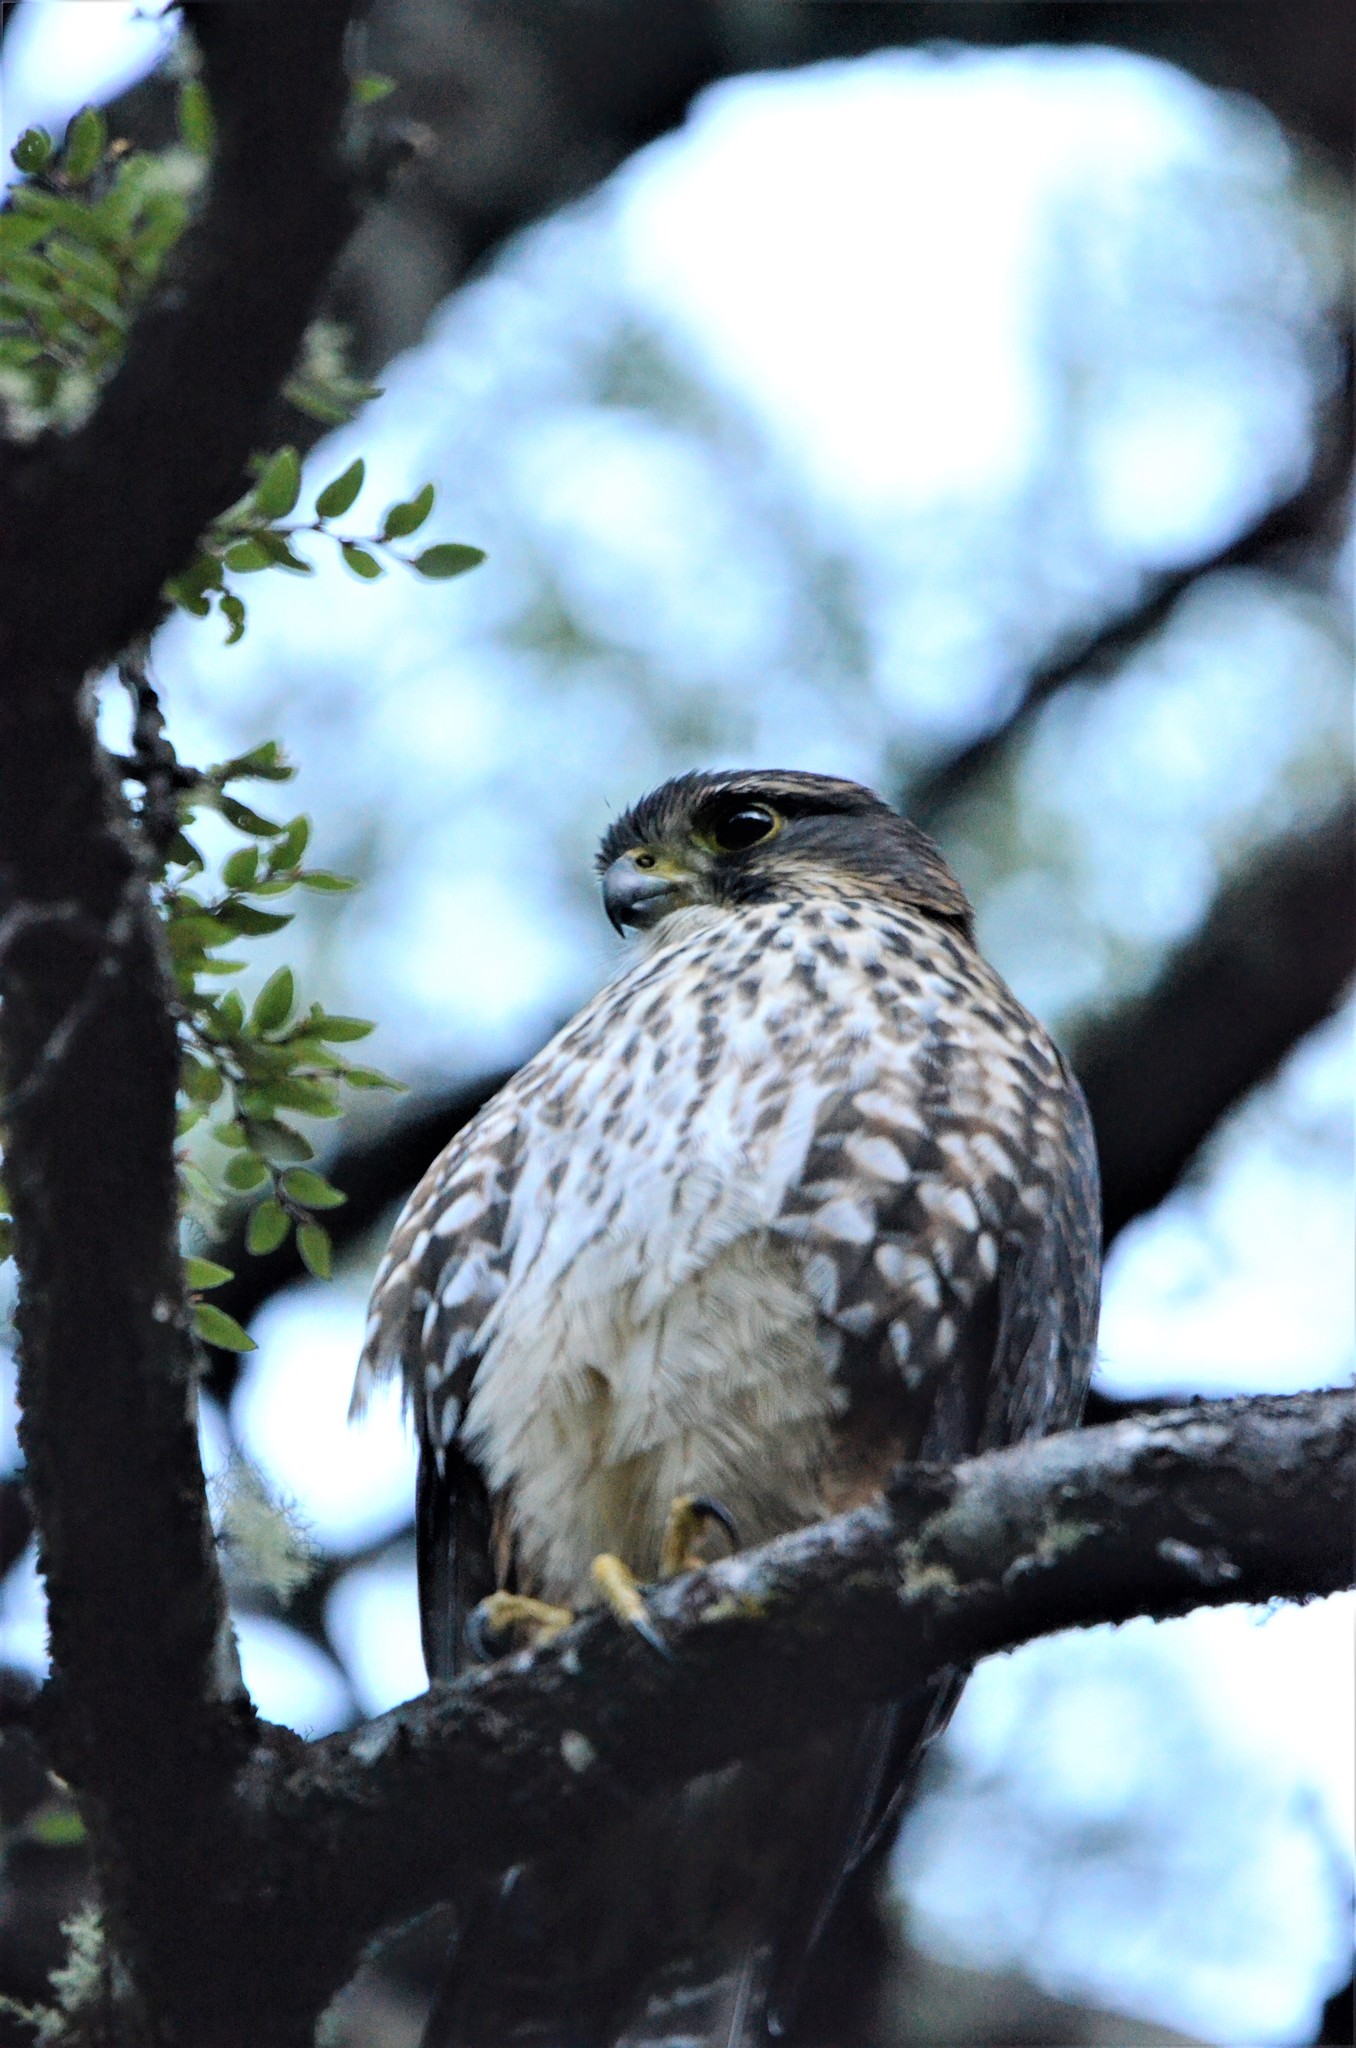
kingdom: Animalia
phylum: Chordata
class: Aves
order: Falconiformes
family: Falconidae
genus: Falco
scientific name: Falco novaeseelandiae
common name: New zealand falcon
